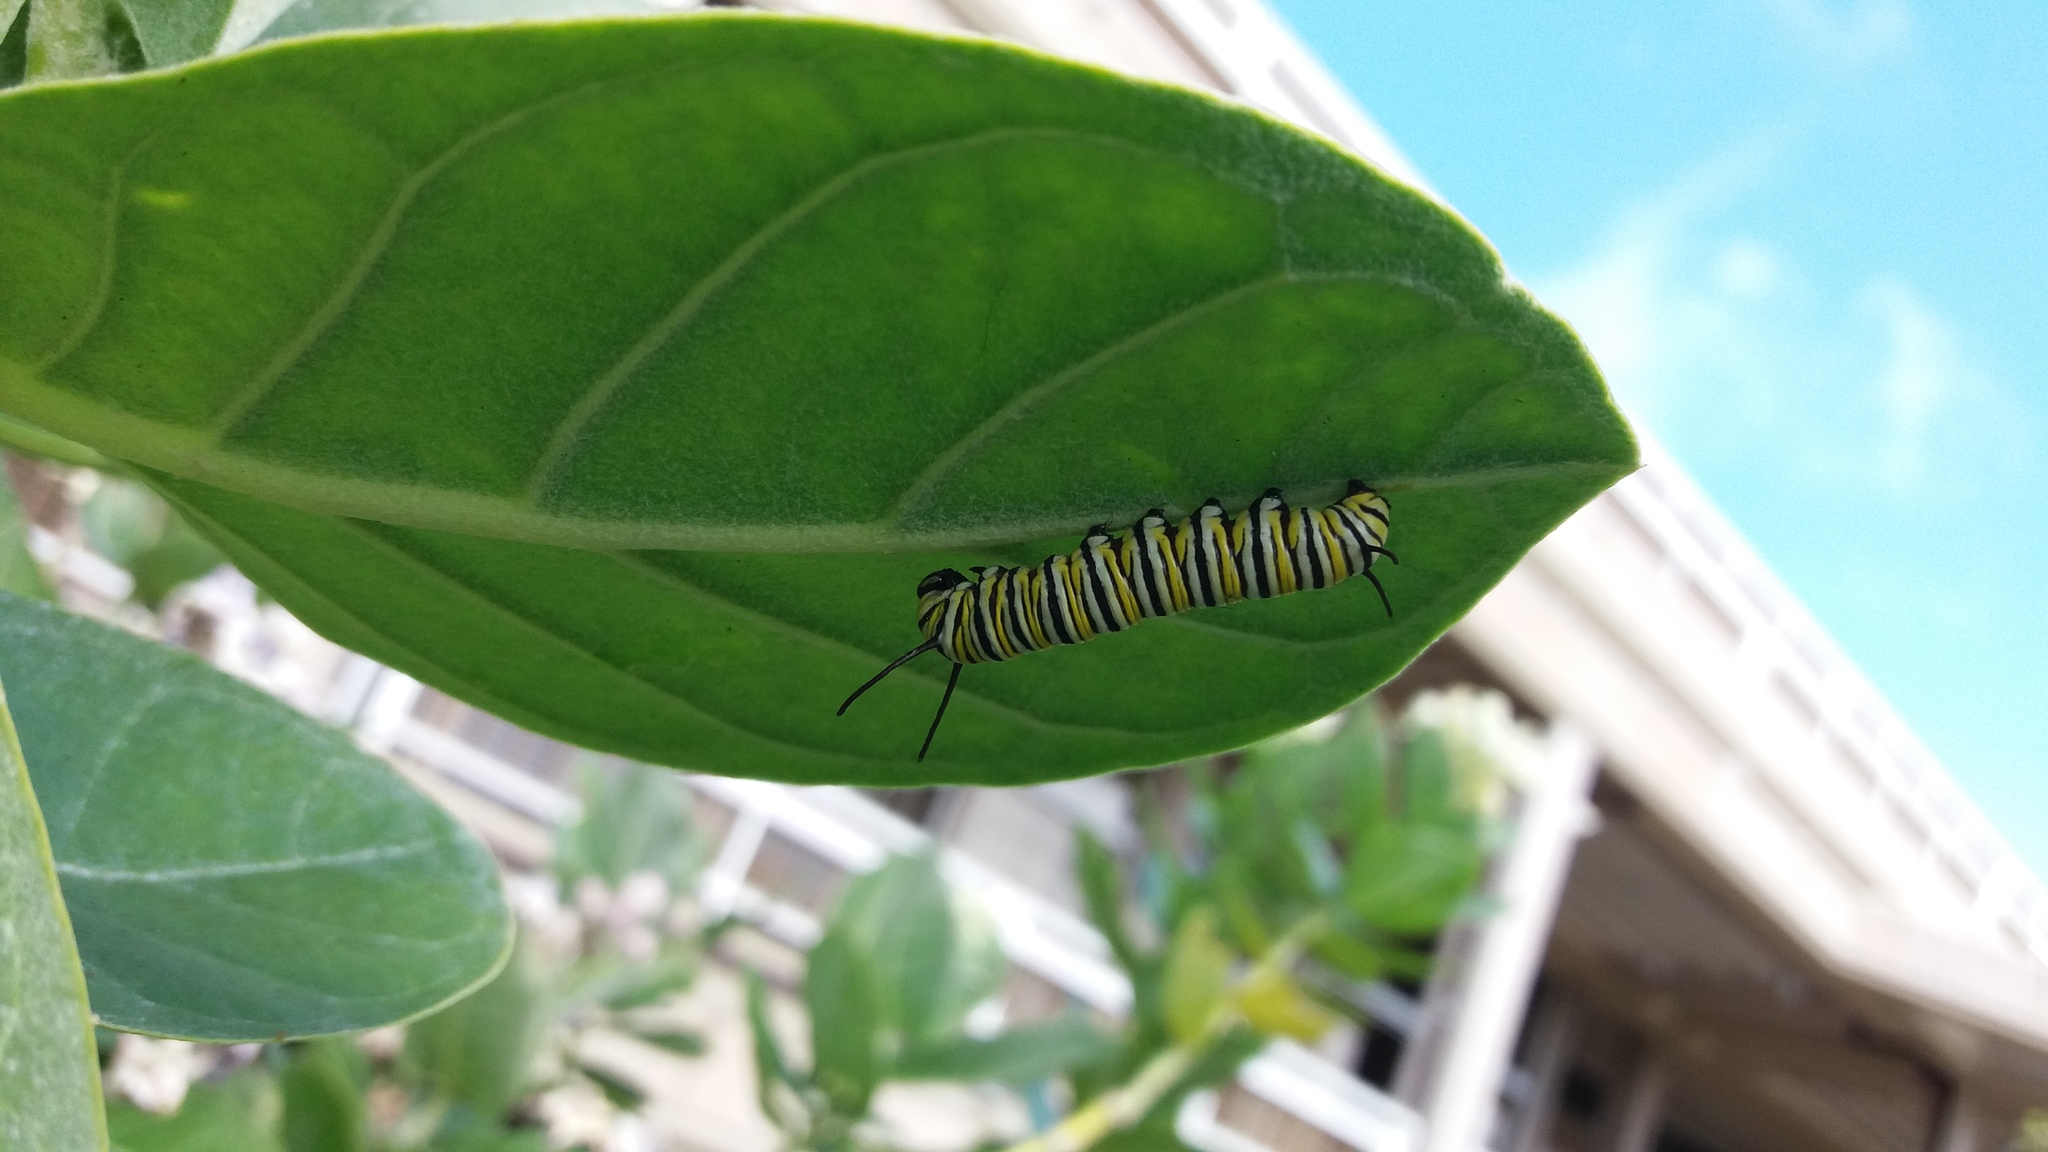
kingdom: Animalia
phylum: Arthropoda
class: Insecta
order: Lepidoptera
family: Nymphalidae
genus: Danaus
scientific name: Danaus plexippus
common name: Monarch
